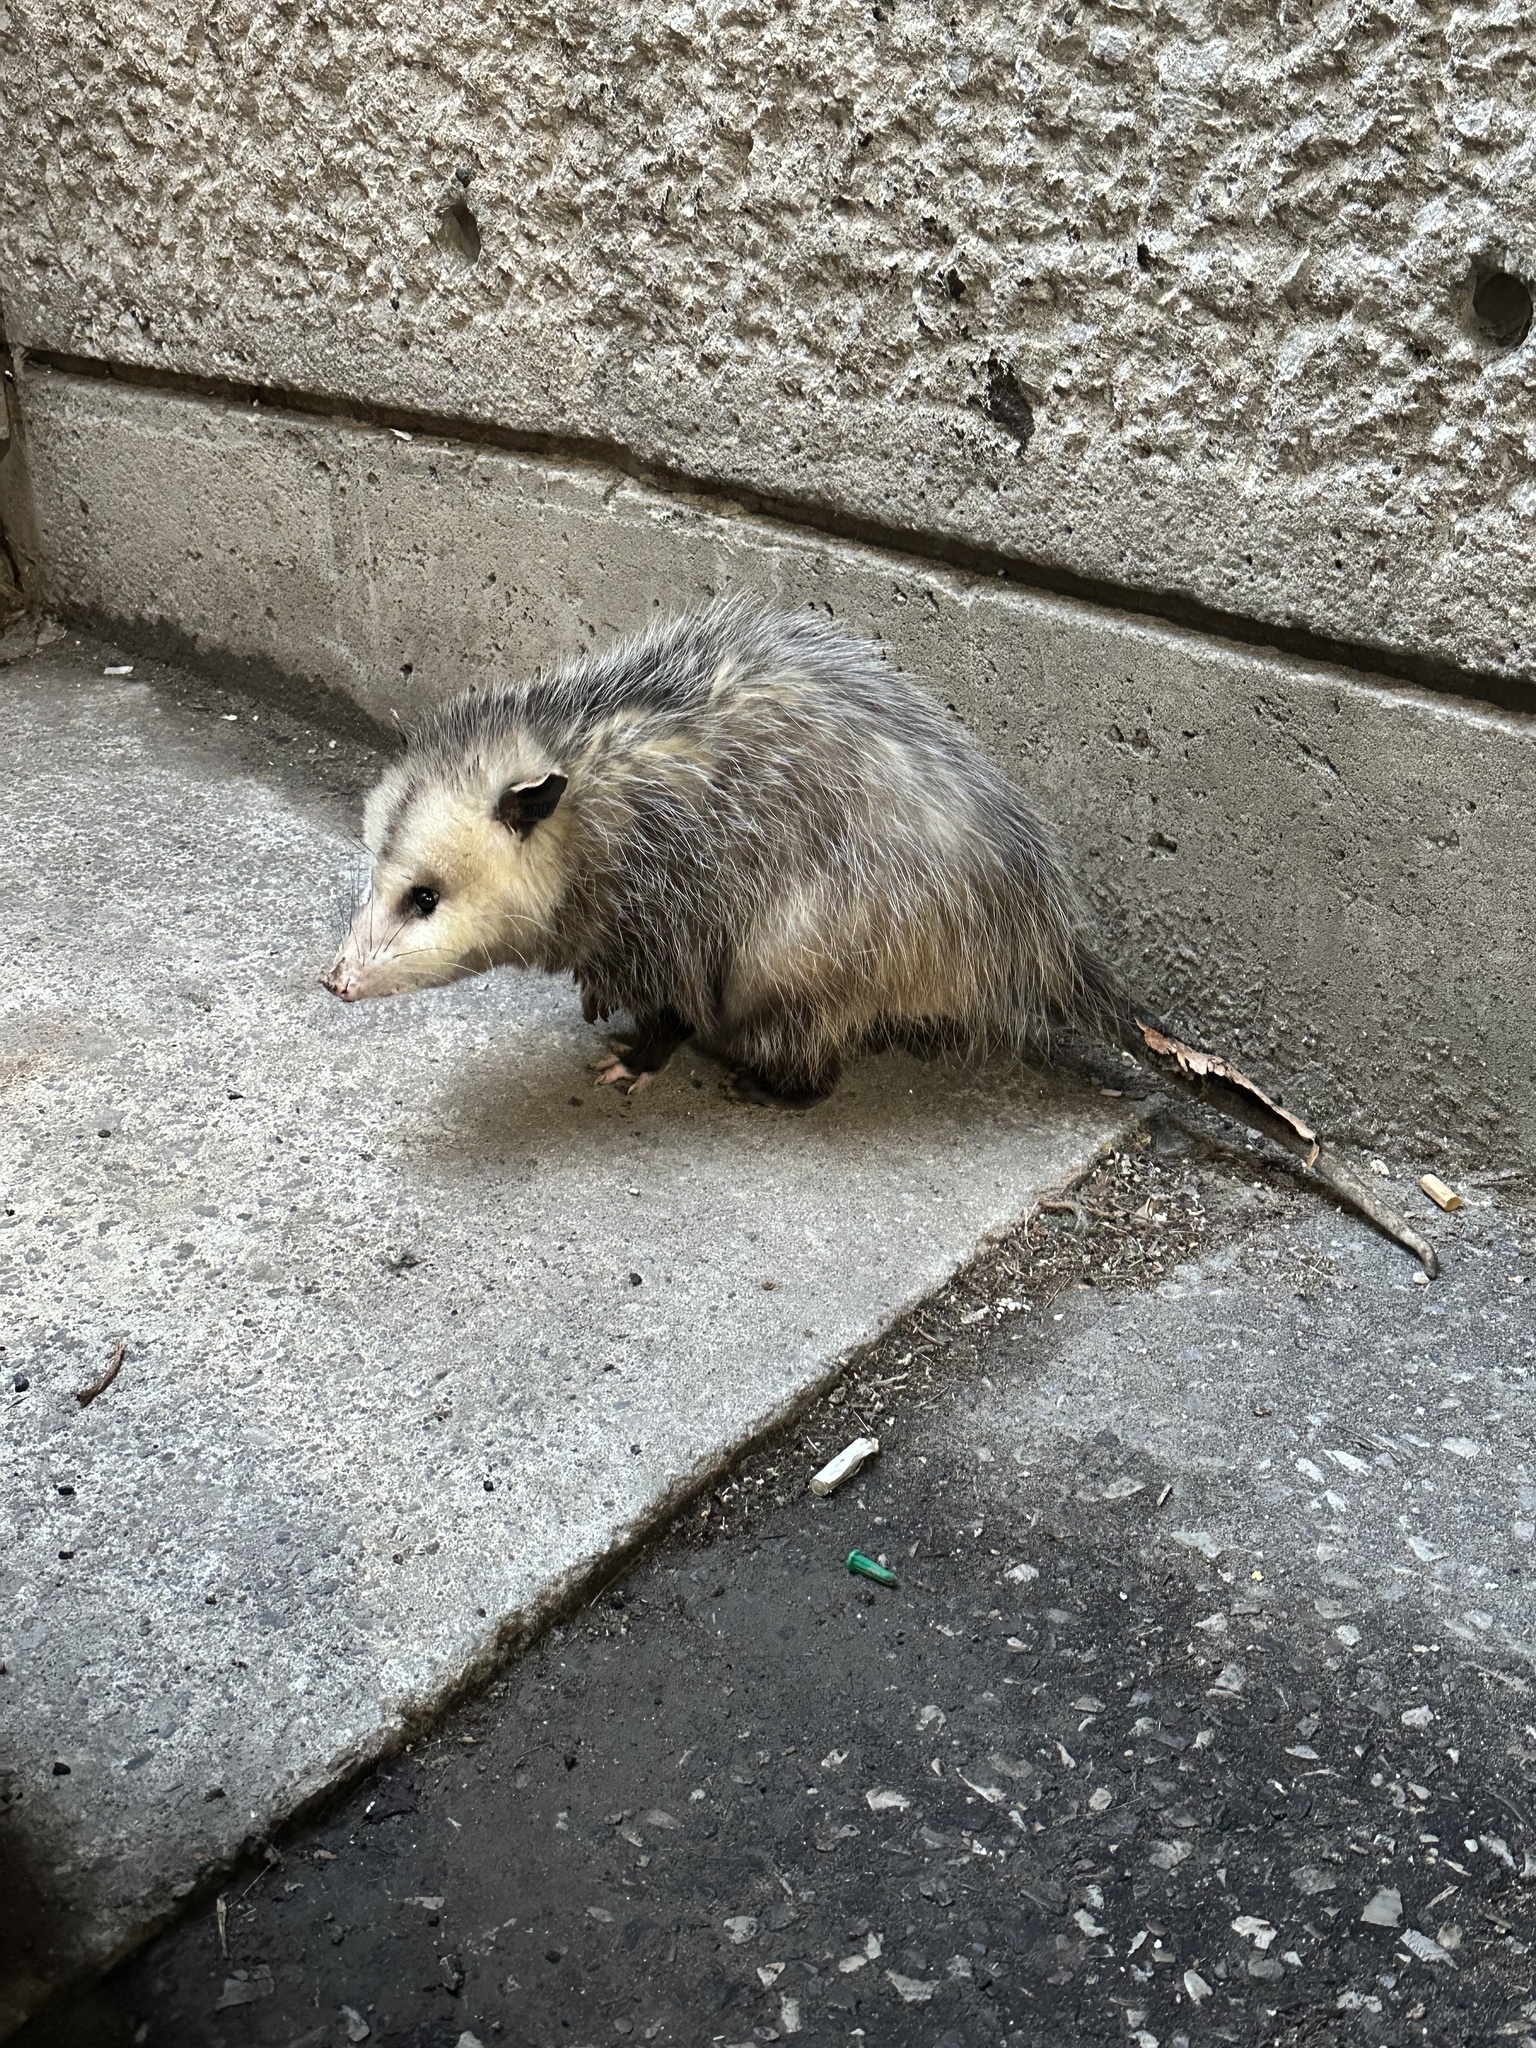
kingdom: Animalia
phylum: Chordata
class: Mammalia
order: Didelphimorphia
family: Didelphidae
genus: Didelphis
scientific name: Didelphis virginiana
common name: Virginia opossum
